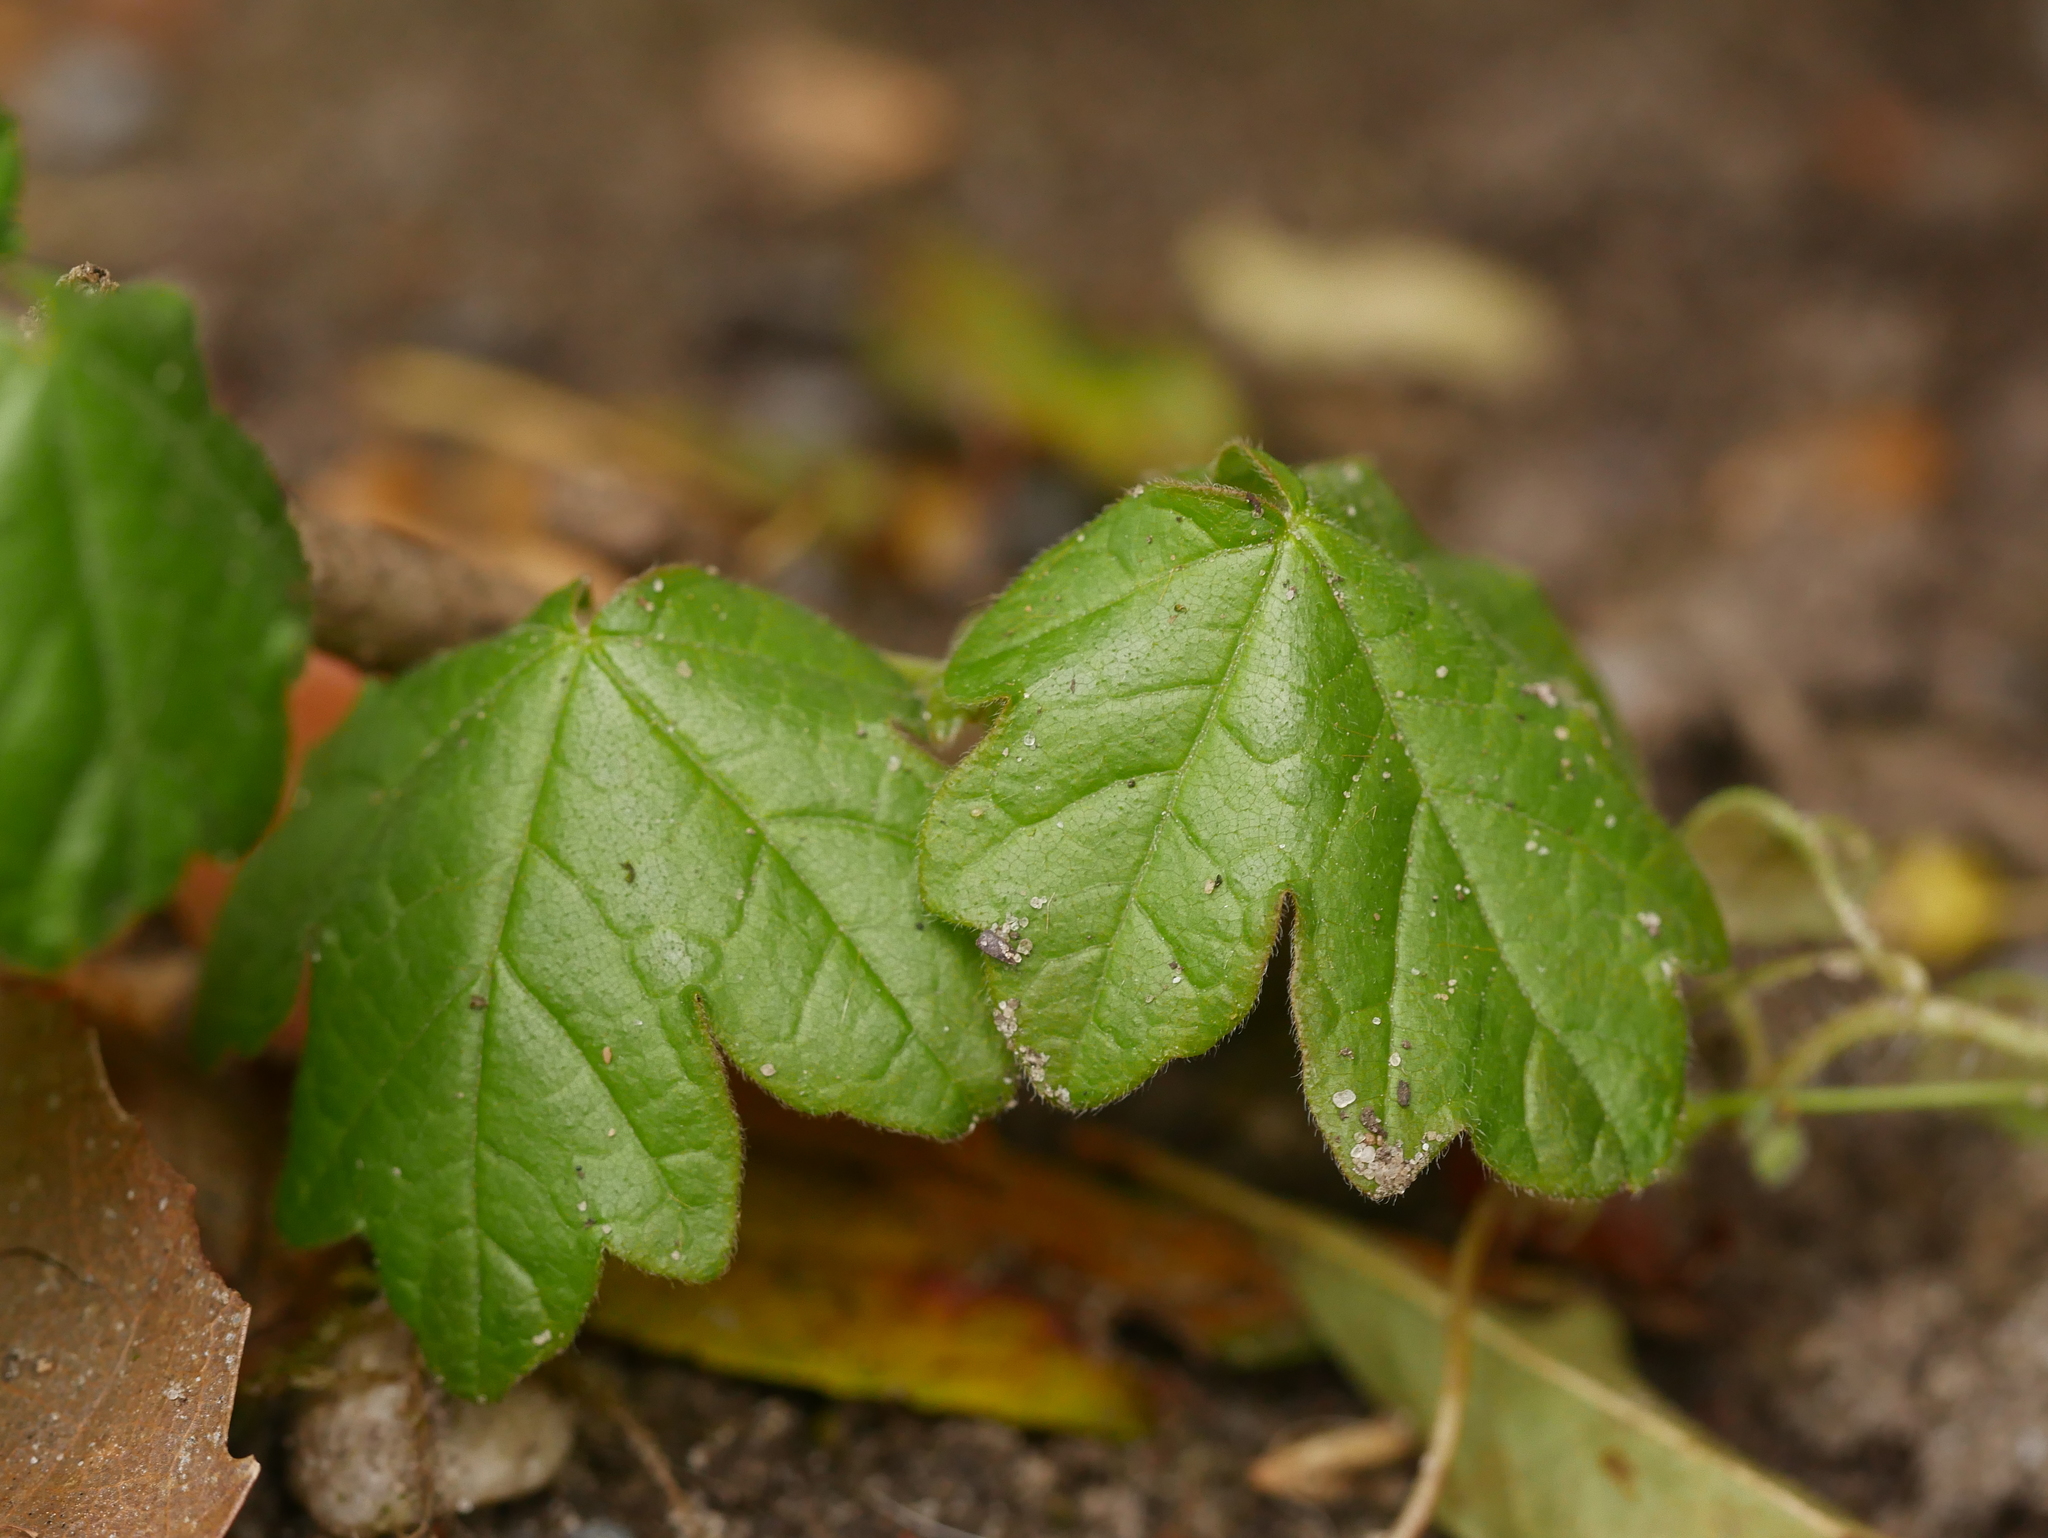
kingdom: Plantae
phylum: Tracheophyta
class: Magnoliopsida
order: Sapindales
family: Sapindaceae
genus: Acer
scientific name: Acer campestre
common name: Field maple
